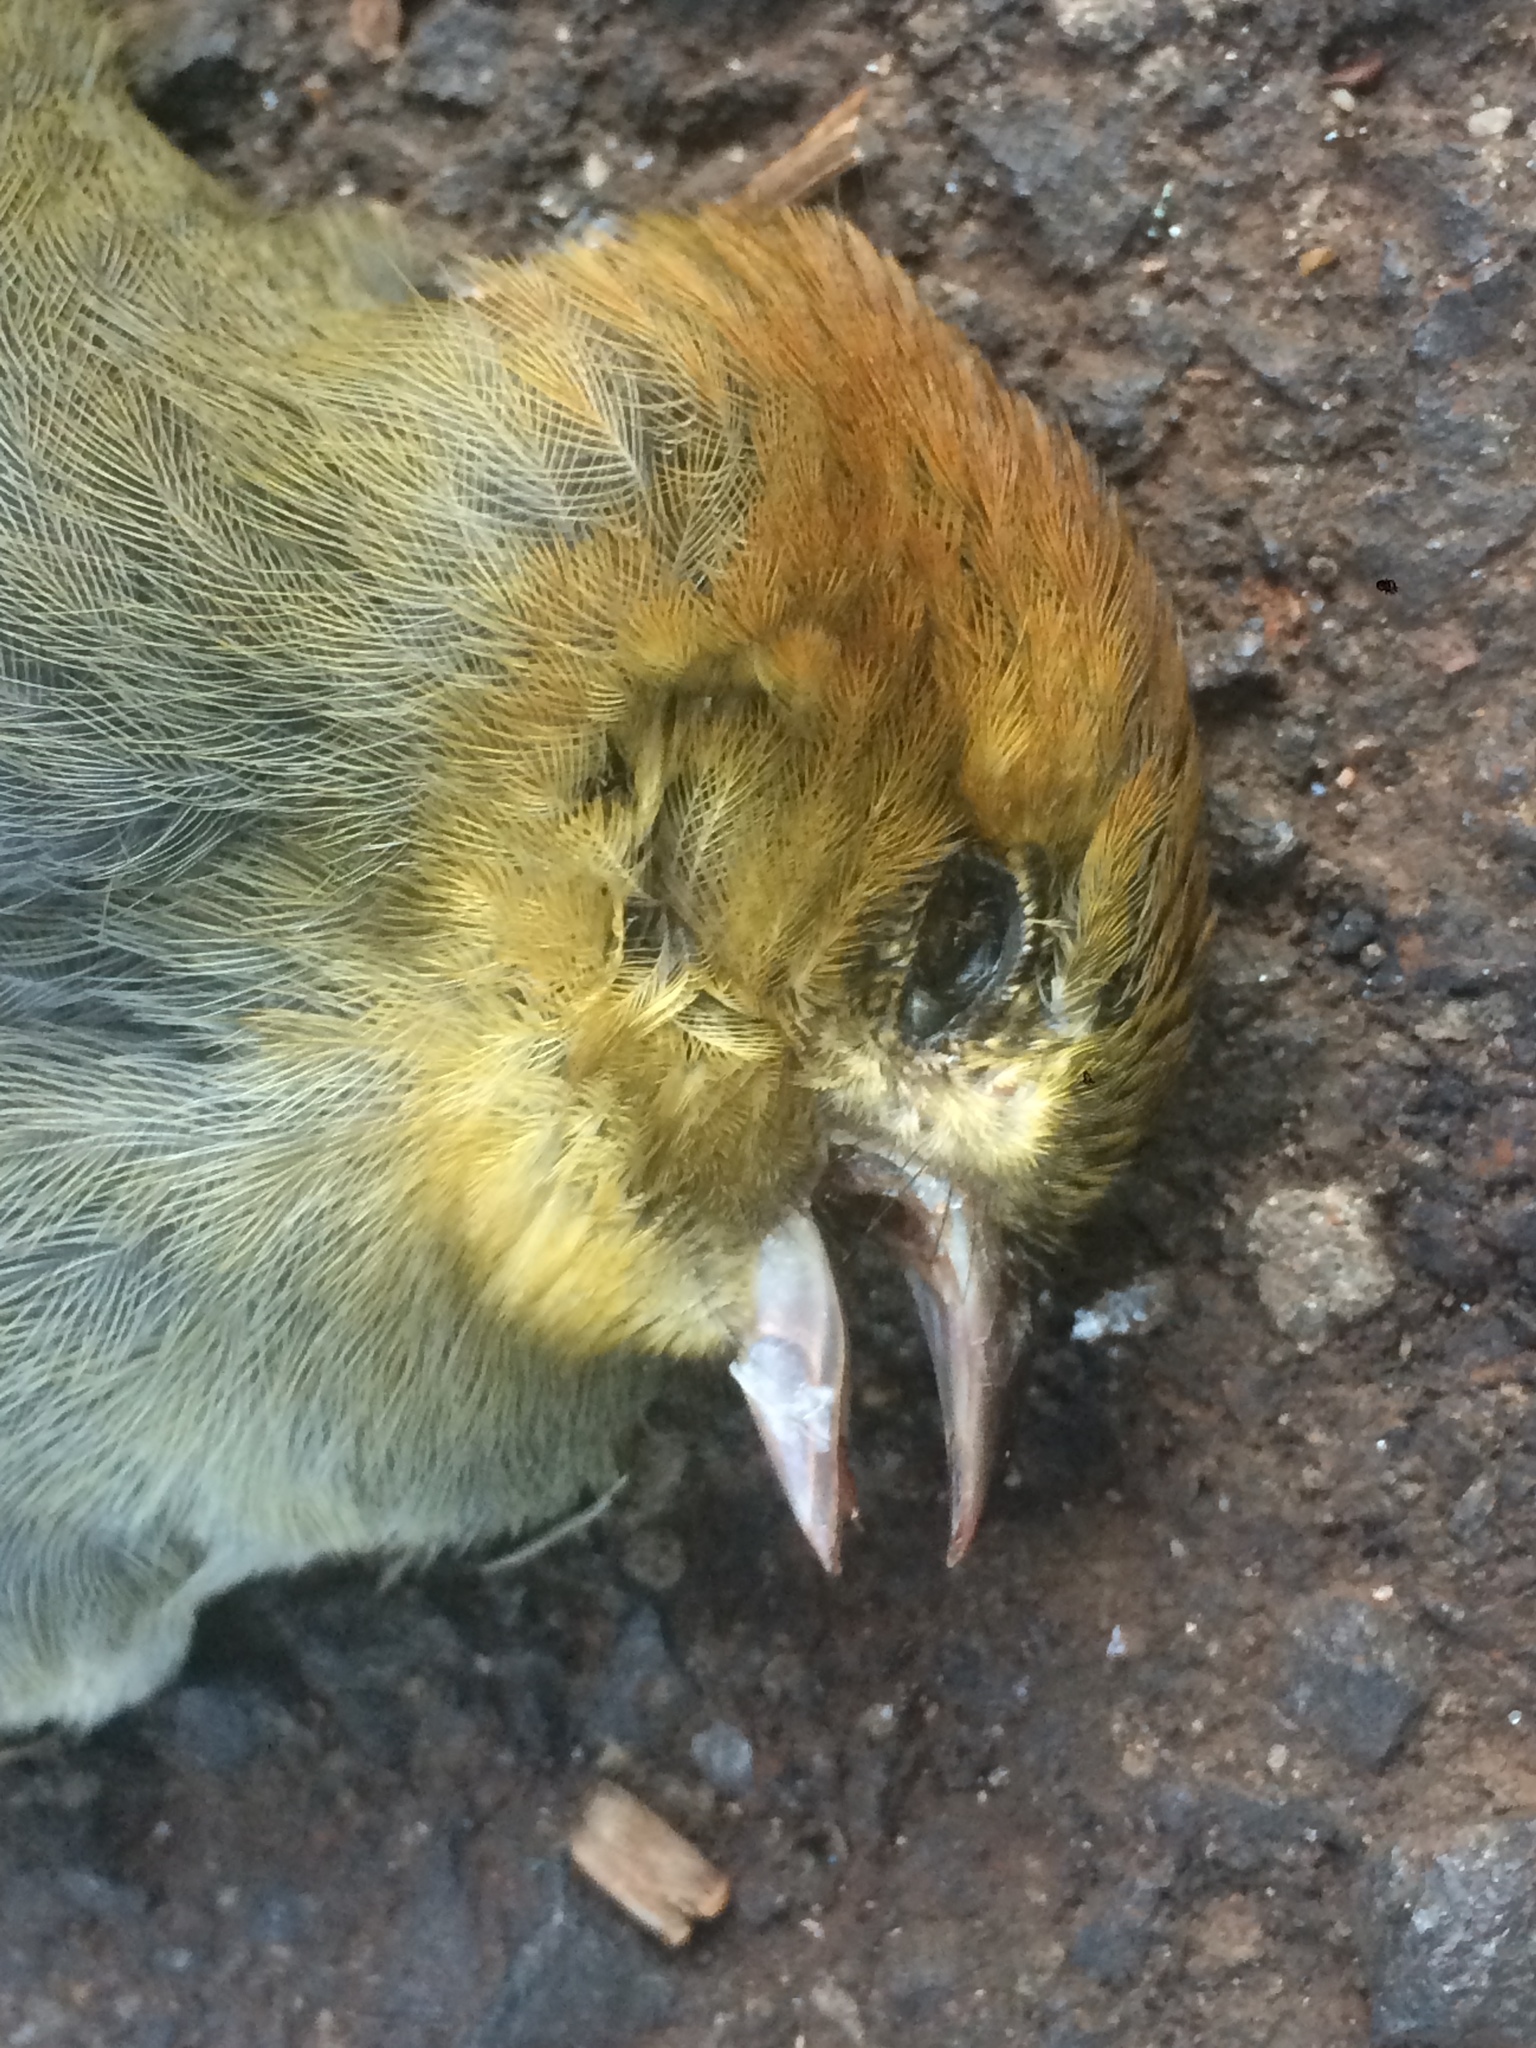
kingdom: Animalia
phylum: Chordata
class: Aves
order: Passeriformes
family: Thraupidae
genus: Thlypopsis
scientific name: Thlypopsis pyrrhocoma
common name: Chestnut-headed tanager
